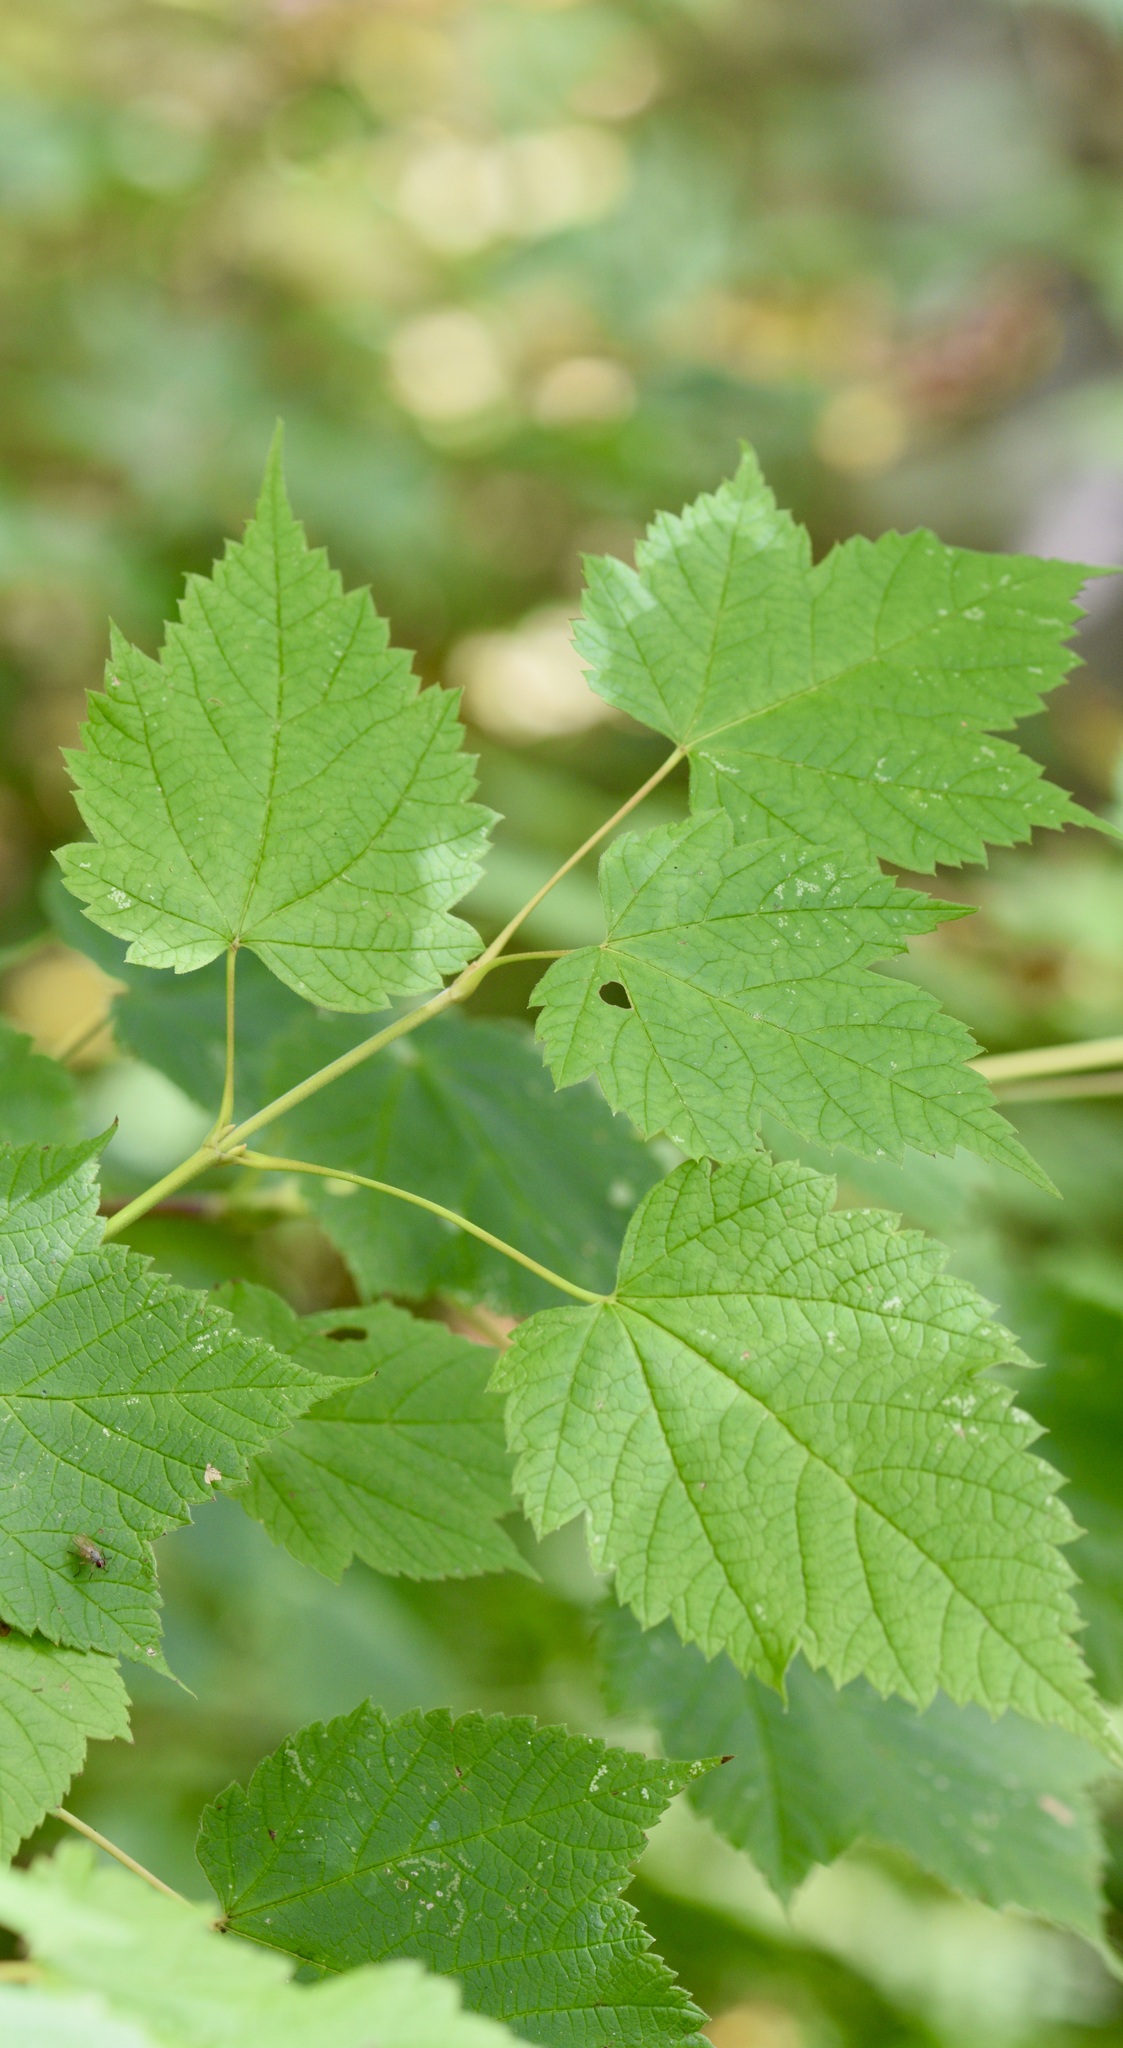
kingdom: Plantae
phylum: Tracheophyta
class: Magnoliopsida
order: Sapindales
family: Sapindaceae
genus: Acer
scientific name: Acer spicatum
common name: Mountain maple
